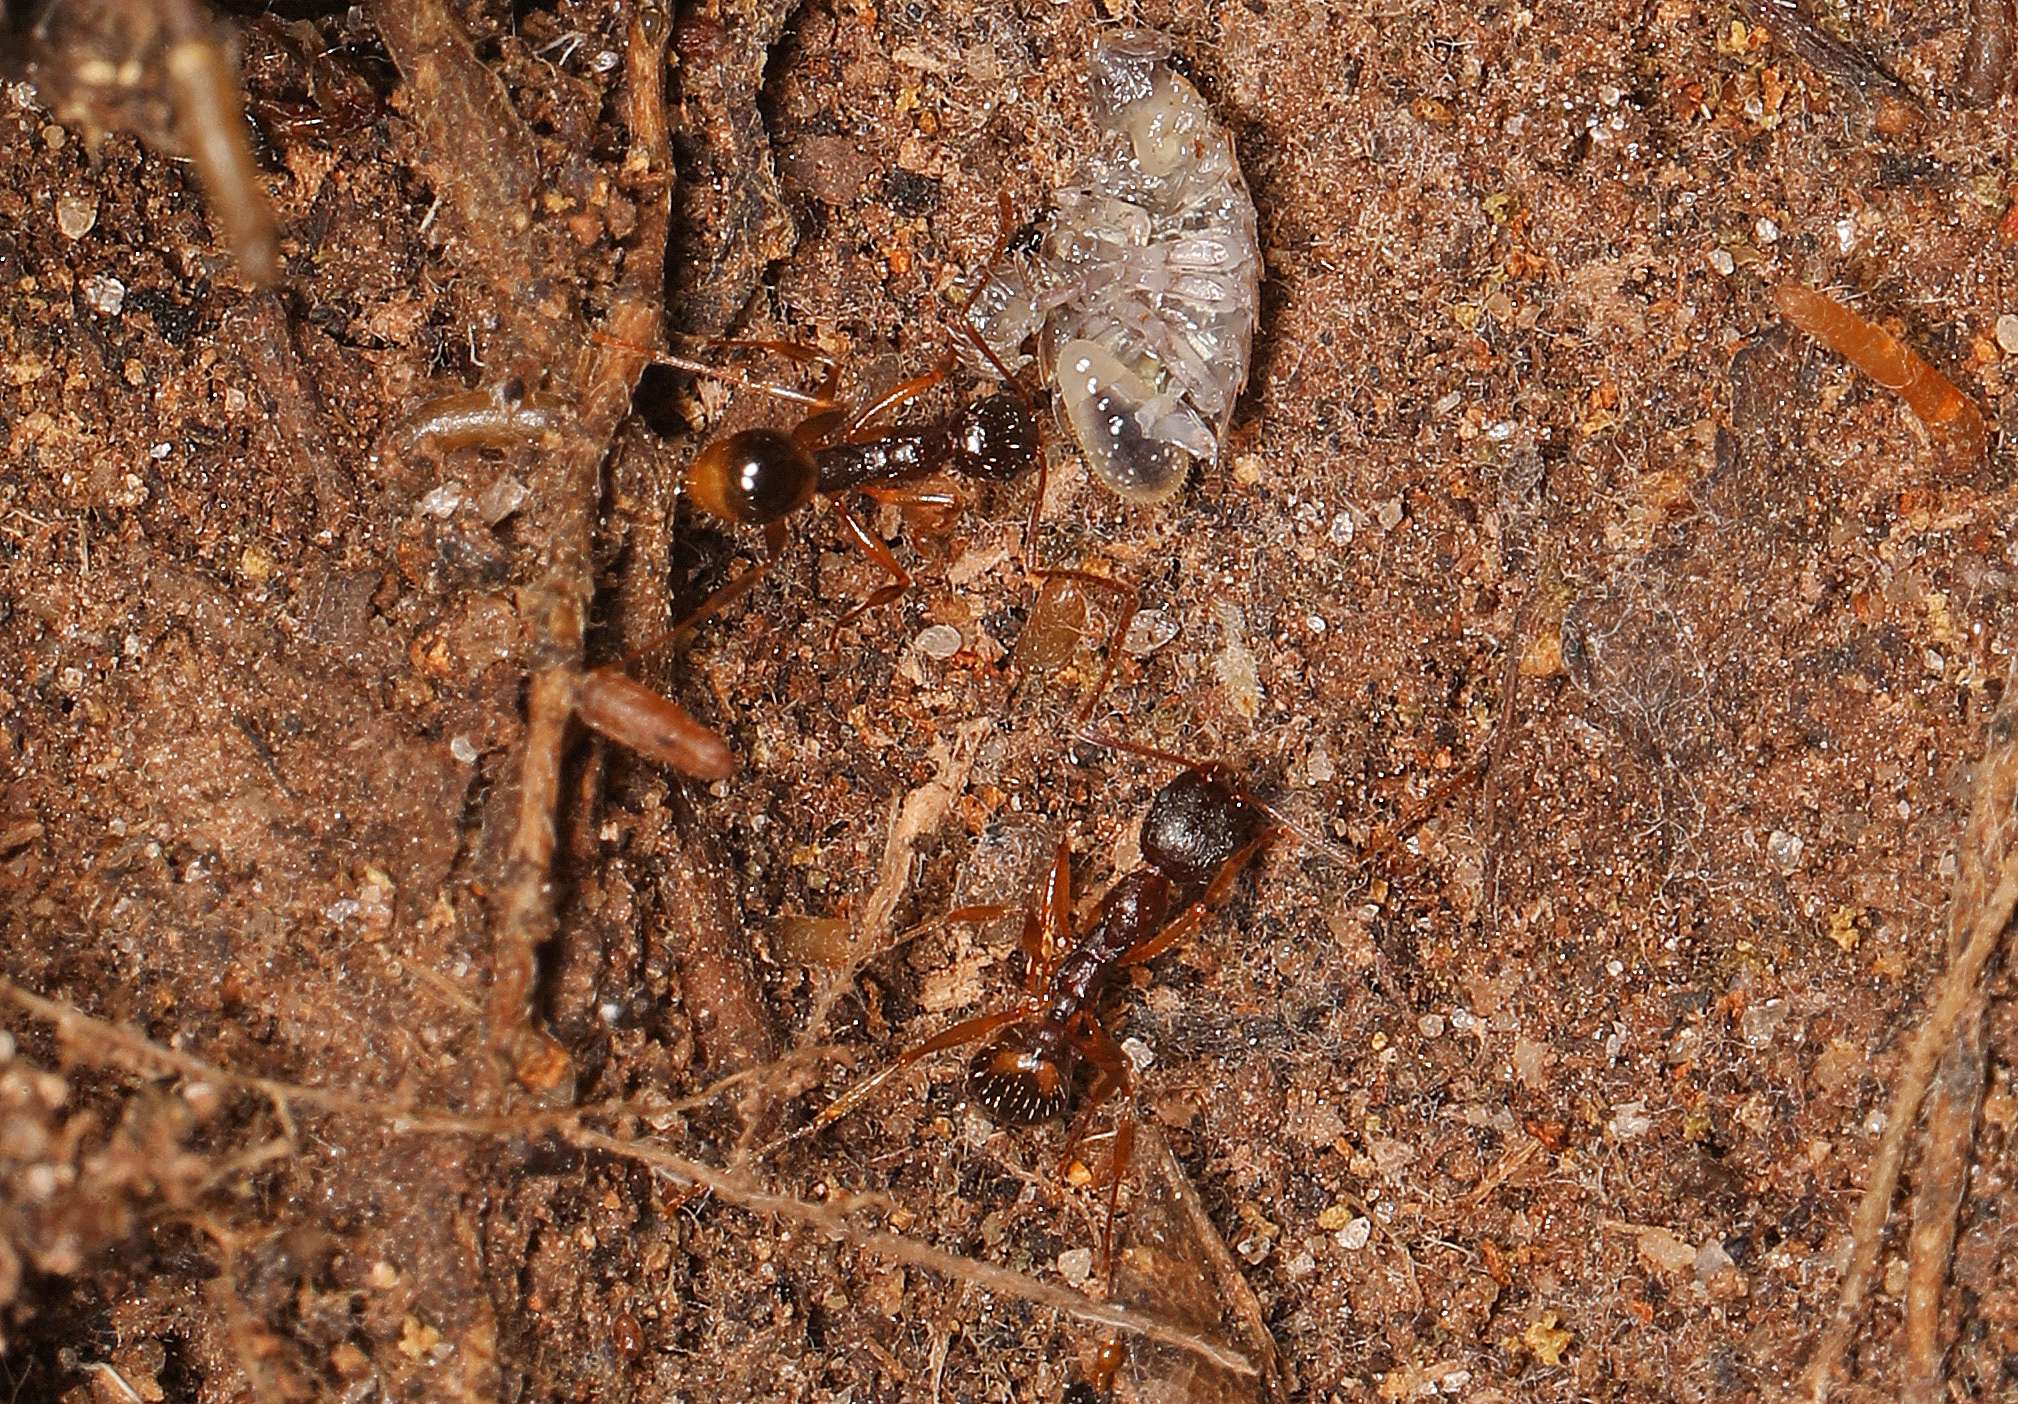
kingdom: Animalia
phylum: Arthropoda
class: Insecta
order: Hymenoptera
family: Formicidae
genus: Aphaenogaster
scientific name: Aphaenogaster rudis
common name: Winnow ant
